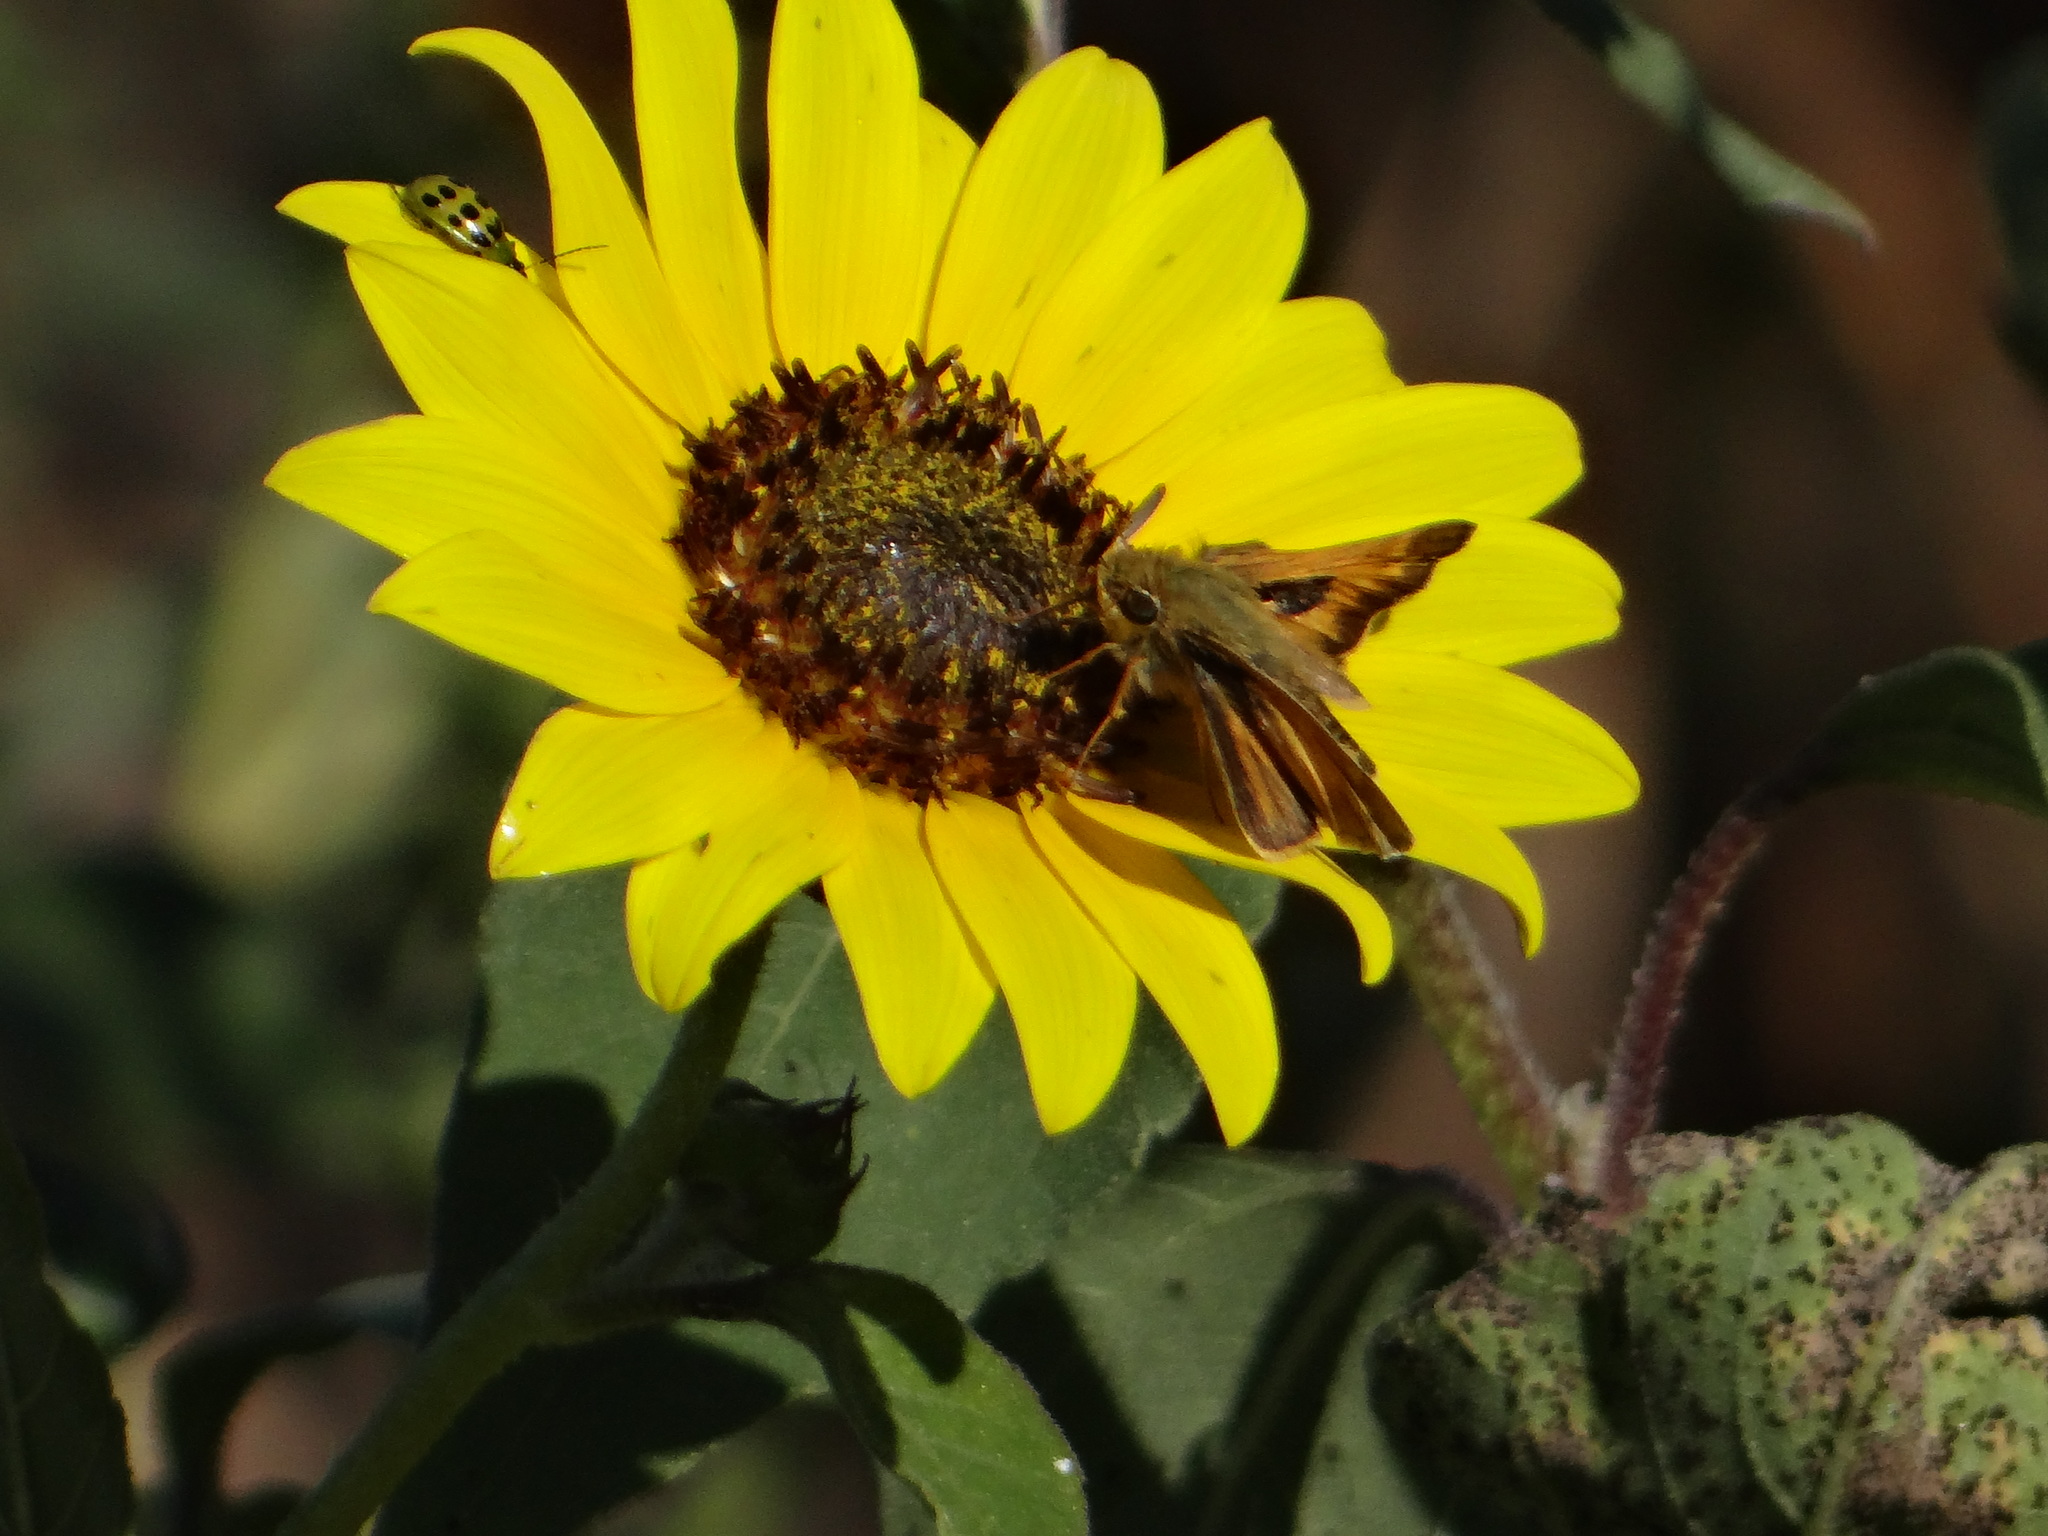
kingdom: Animalia
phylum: Arthropoda
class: Insecta
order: Lepidoptera
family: Hesperiidae
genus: Atalopedes
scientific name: Atalopedes
